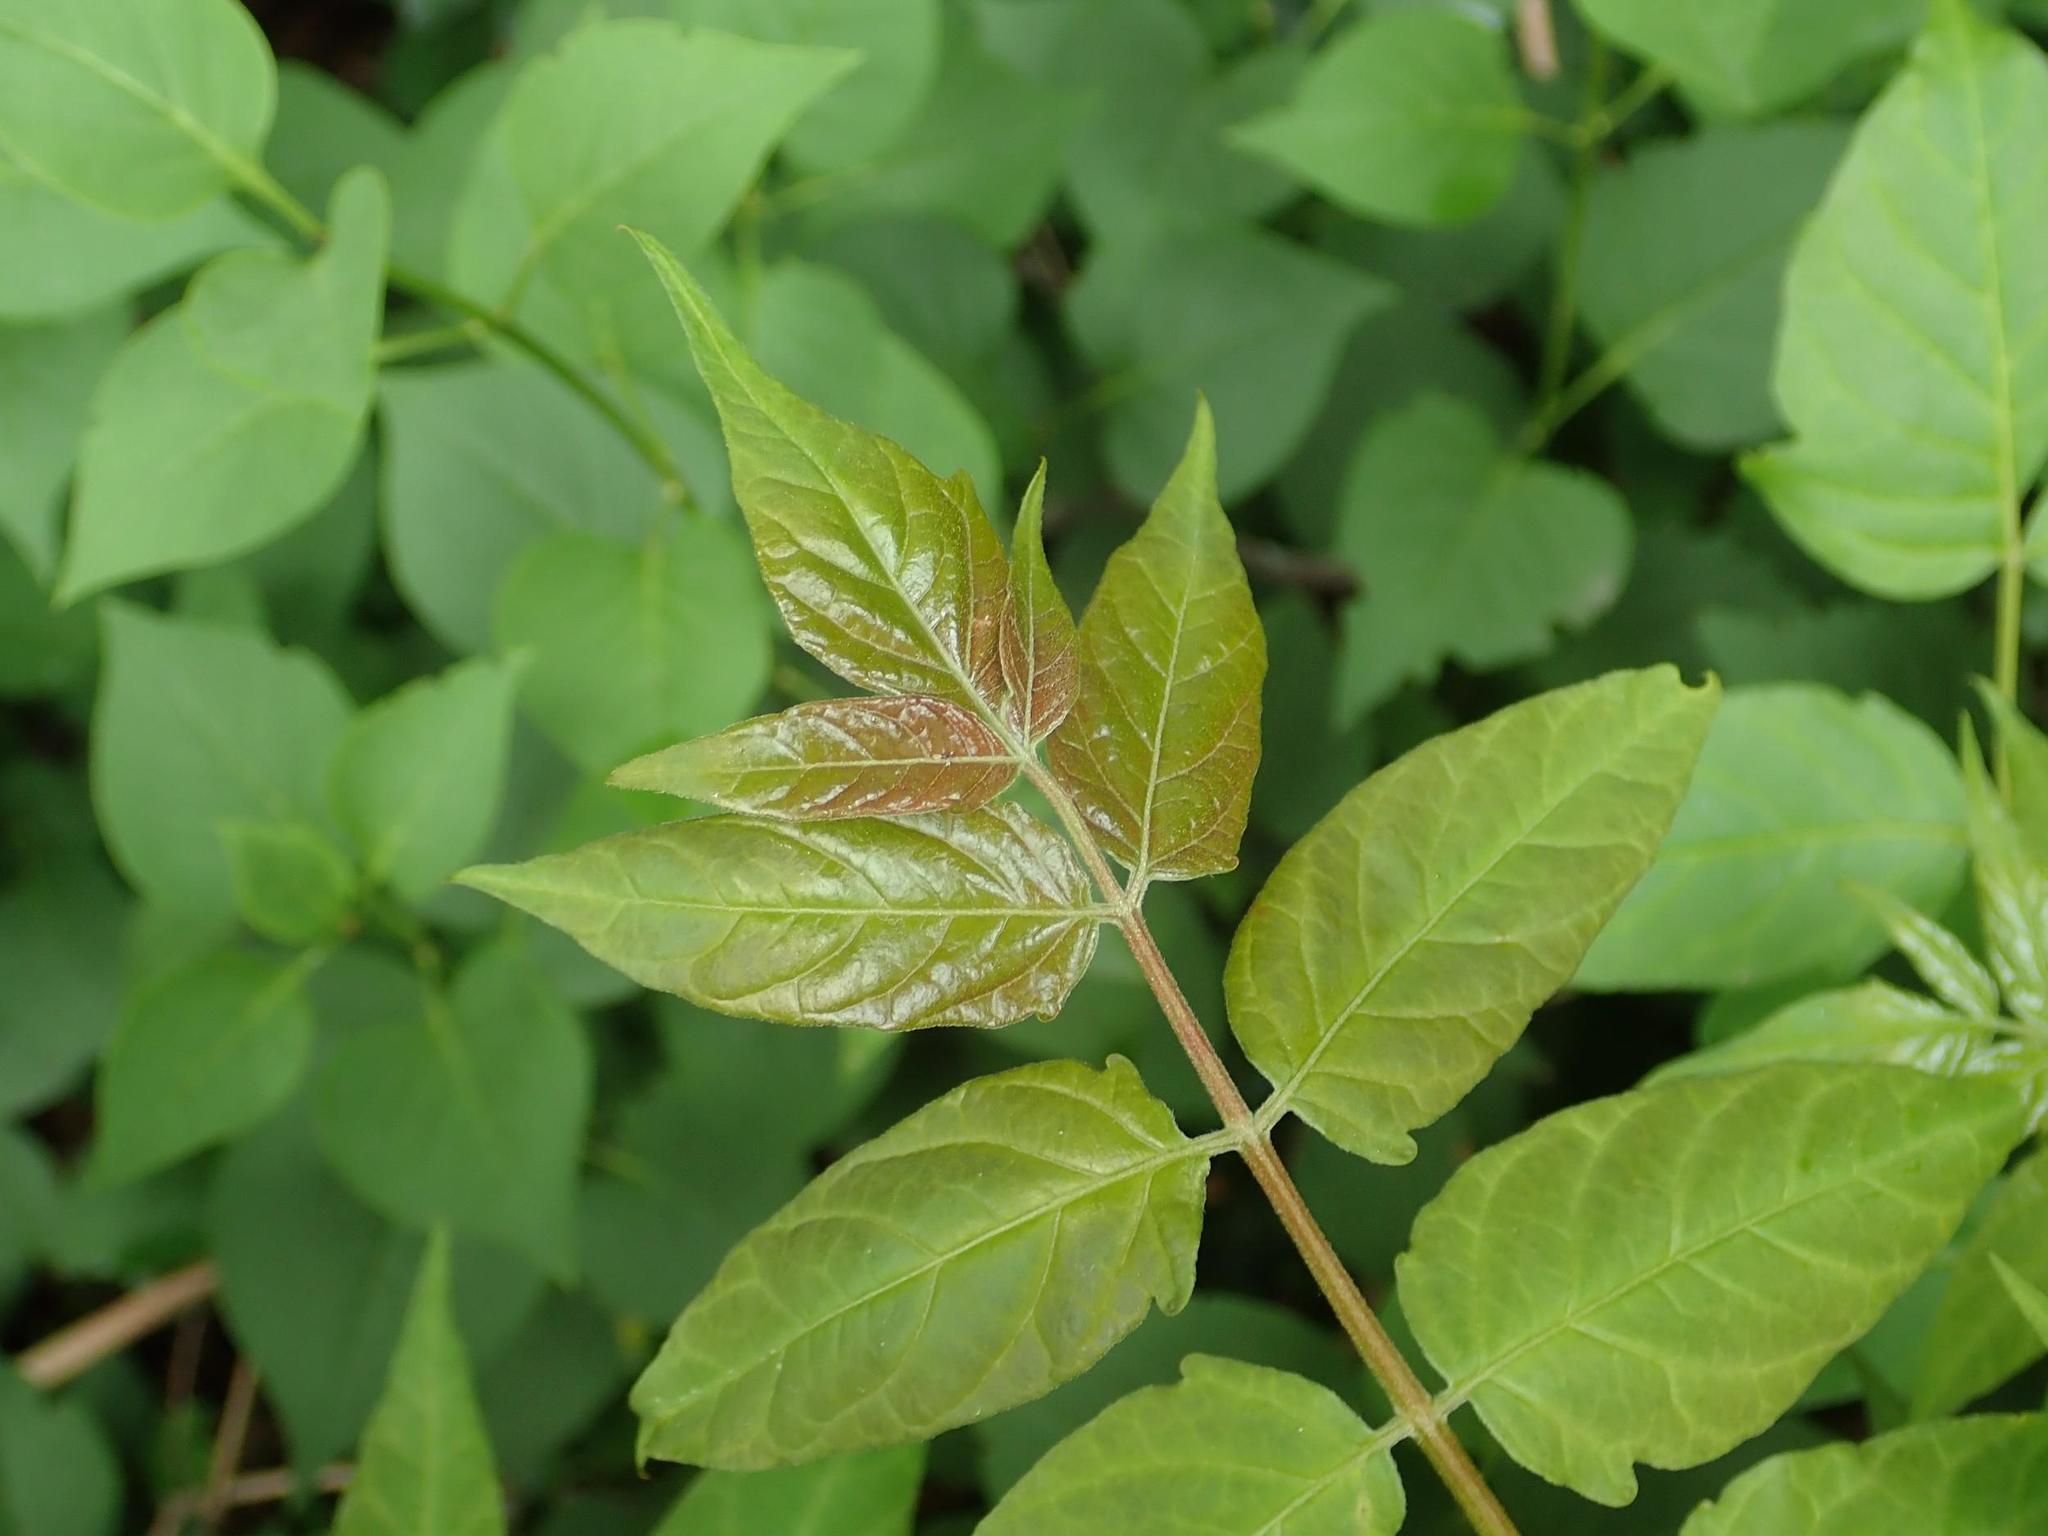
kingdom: Plantae
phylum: Tracheophyta
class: Magnoliopsida
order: Sapindales
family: Simaroubaceae
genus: Ailanthus
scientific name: Ailanthus altissima
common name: Tree-of-heaven
